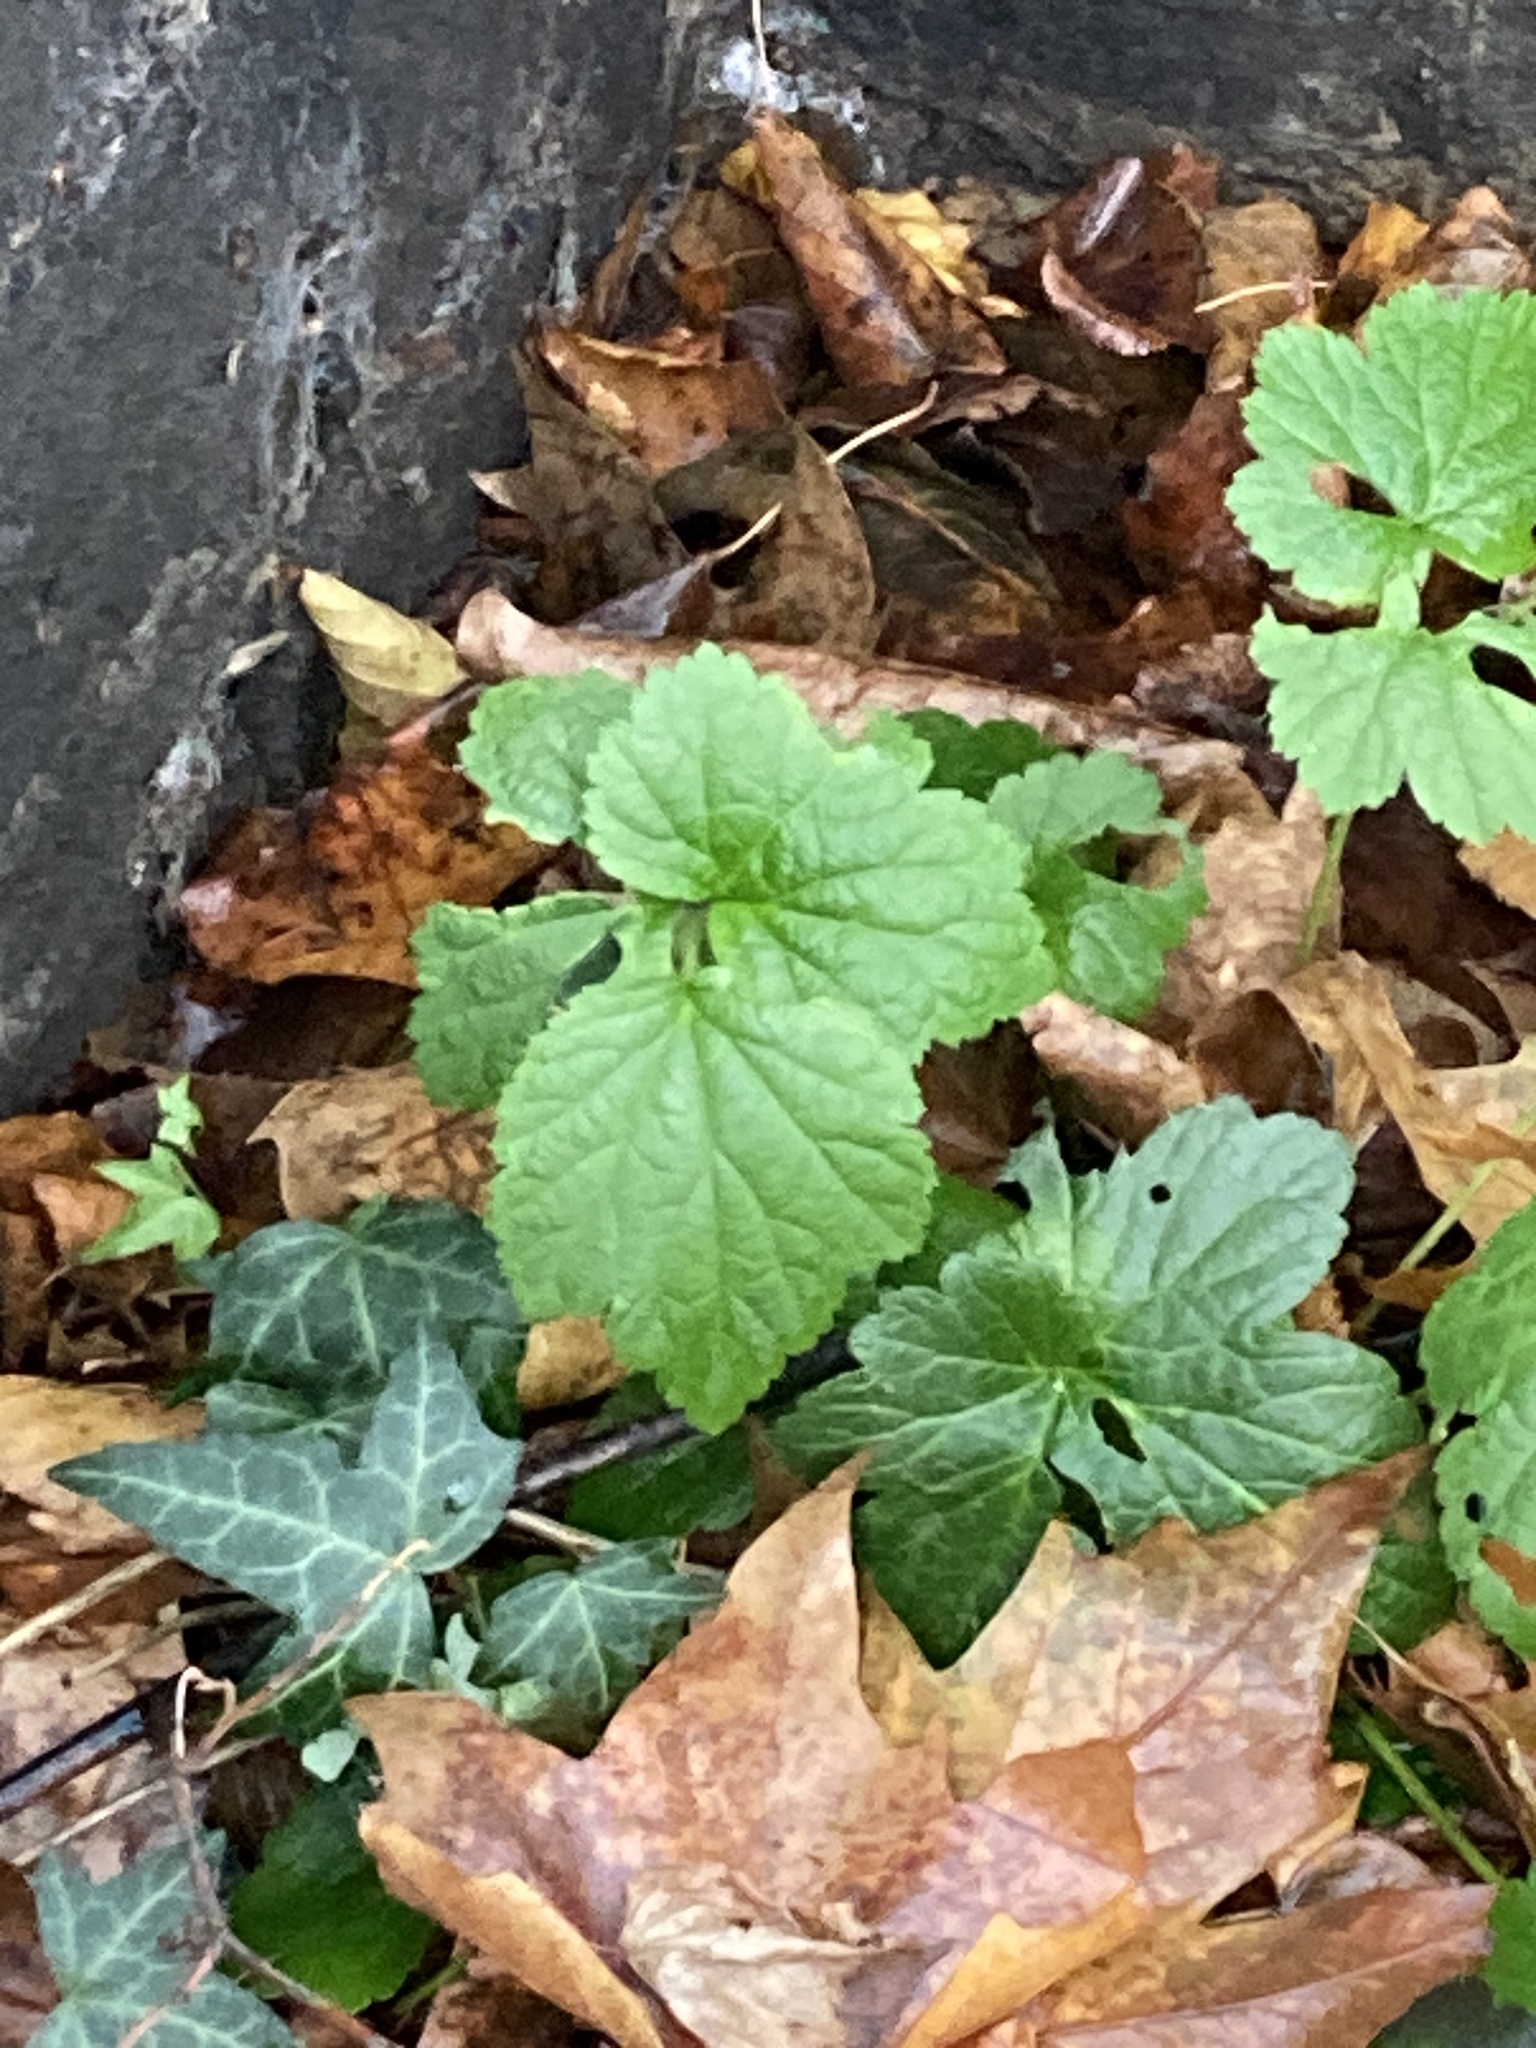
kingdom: Plantae
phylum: Tracheophyta
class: Magnoliopsida
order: Rosales
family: Rosaceae
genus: Geum
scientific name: Geum urbanum
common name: Wood avens
